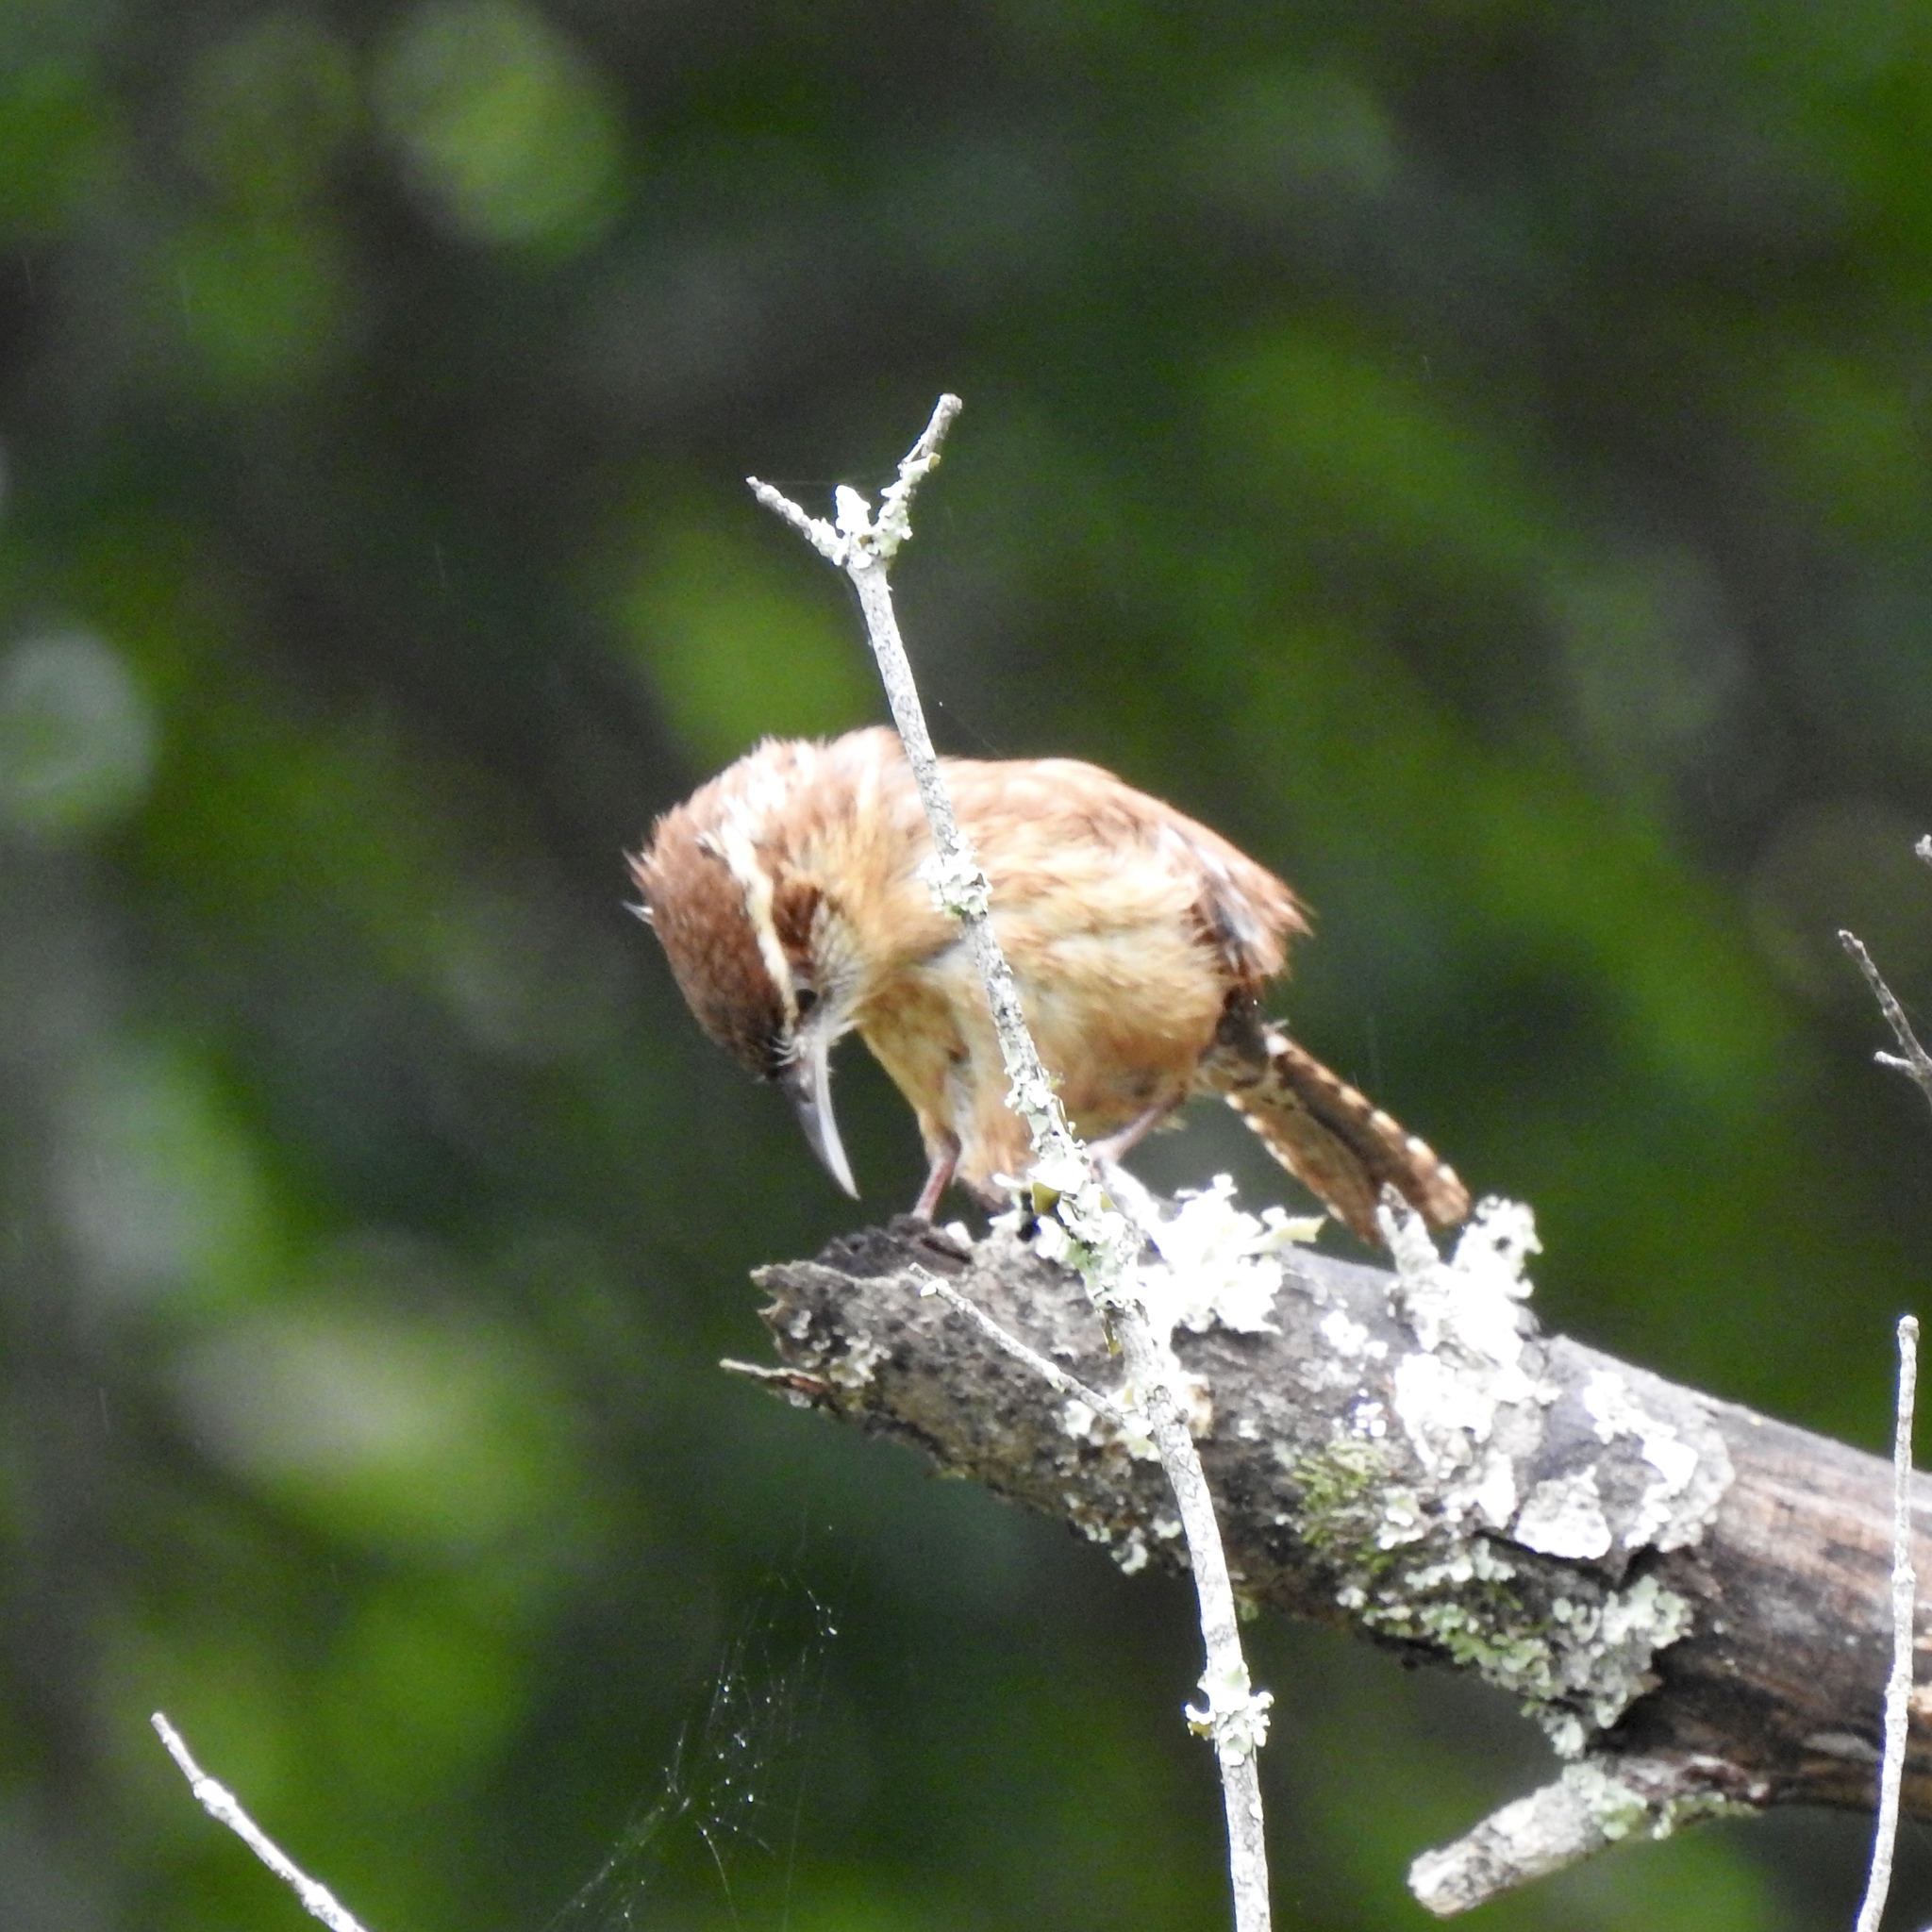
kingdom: Animalia
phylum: Chordata
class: Aves
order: Passeriformes
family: Troglodytidae
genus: Thryothorus
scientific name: Thryothorus ludovicianus
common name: Carolina wren
